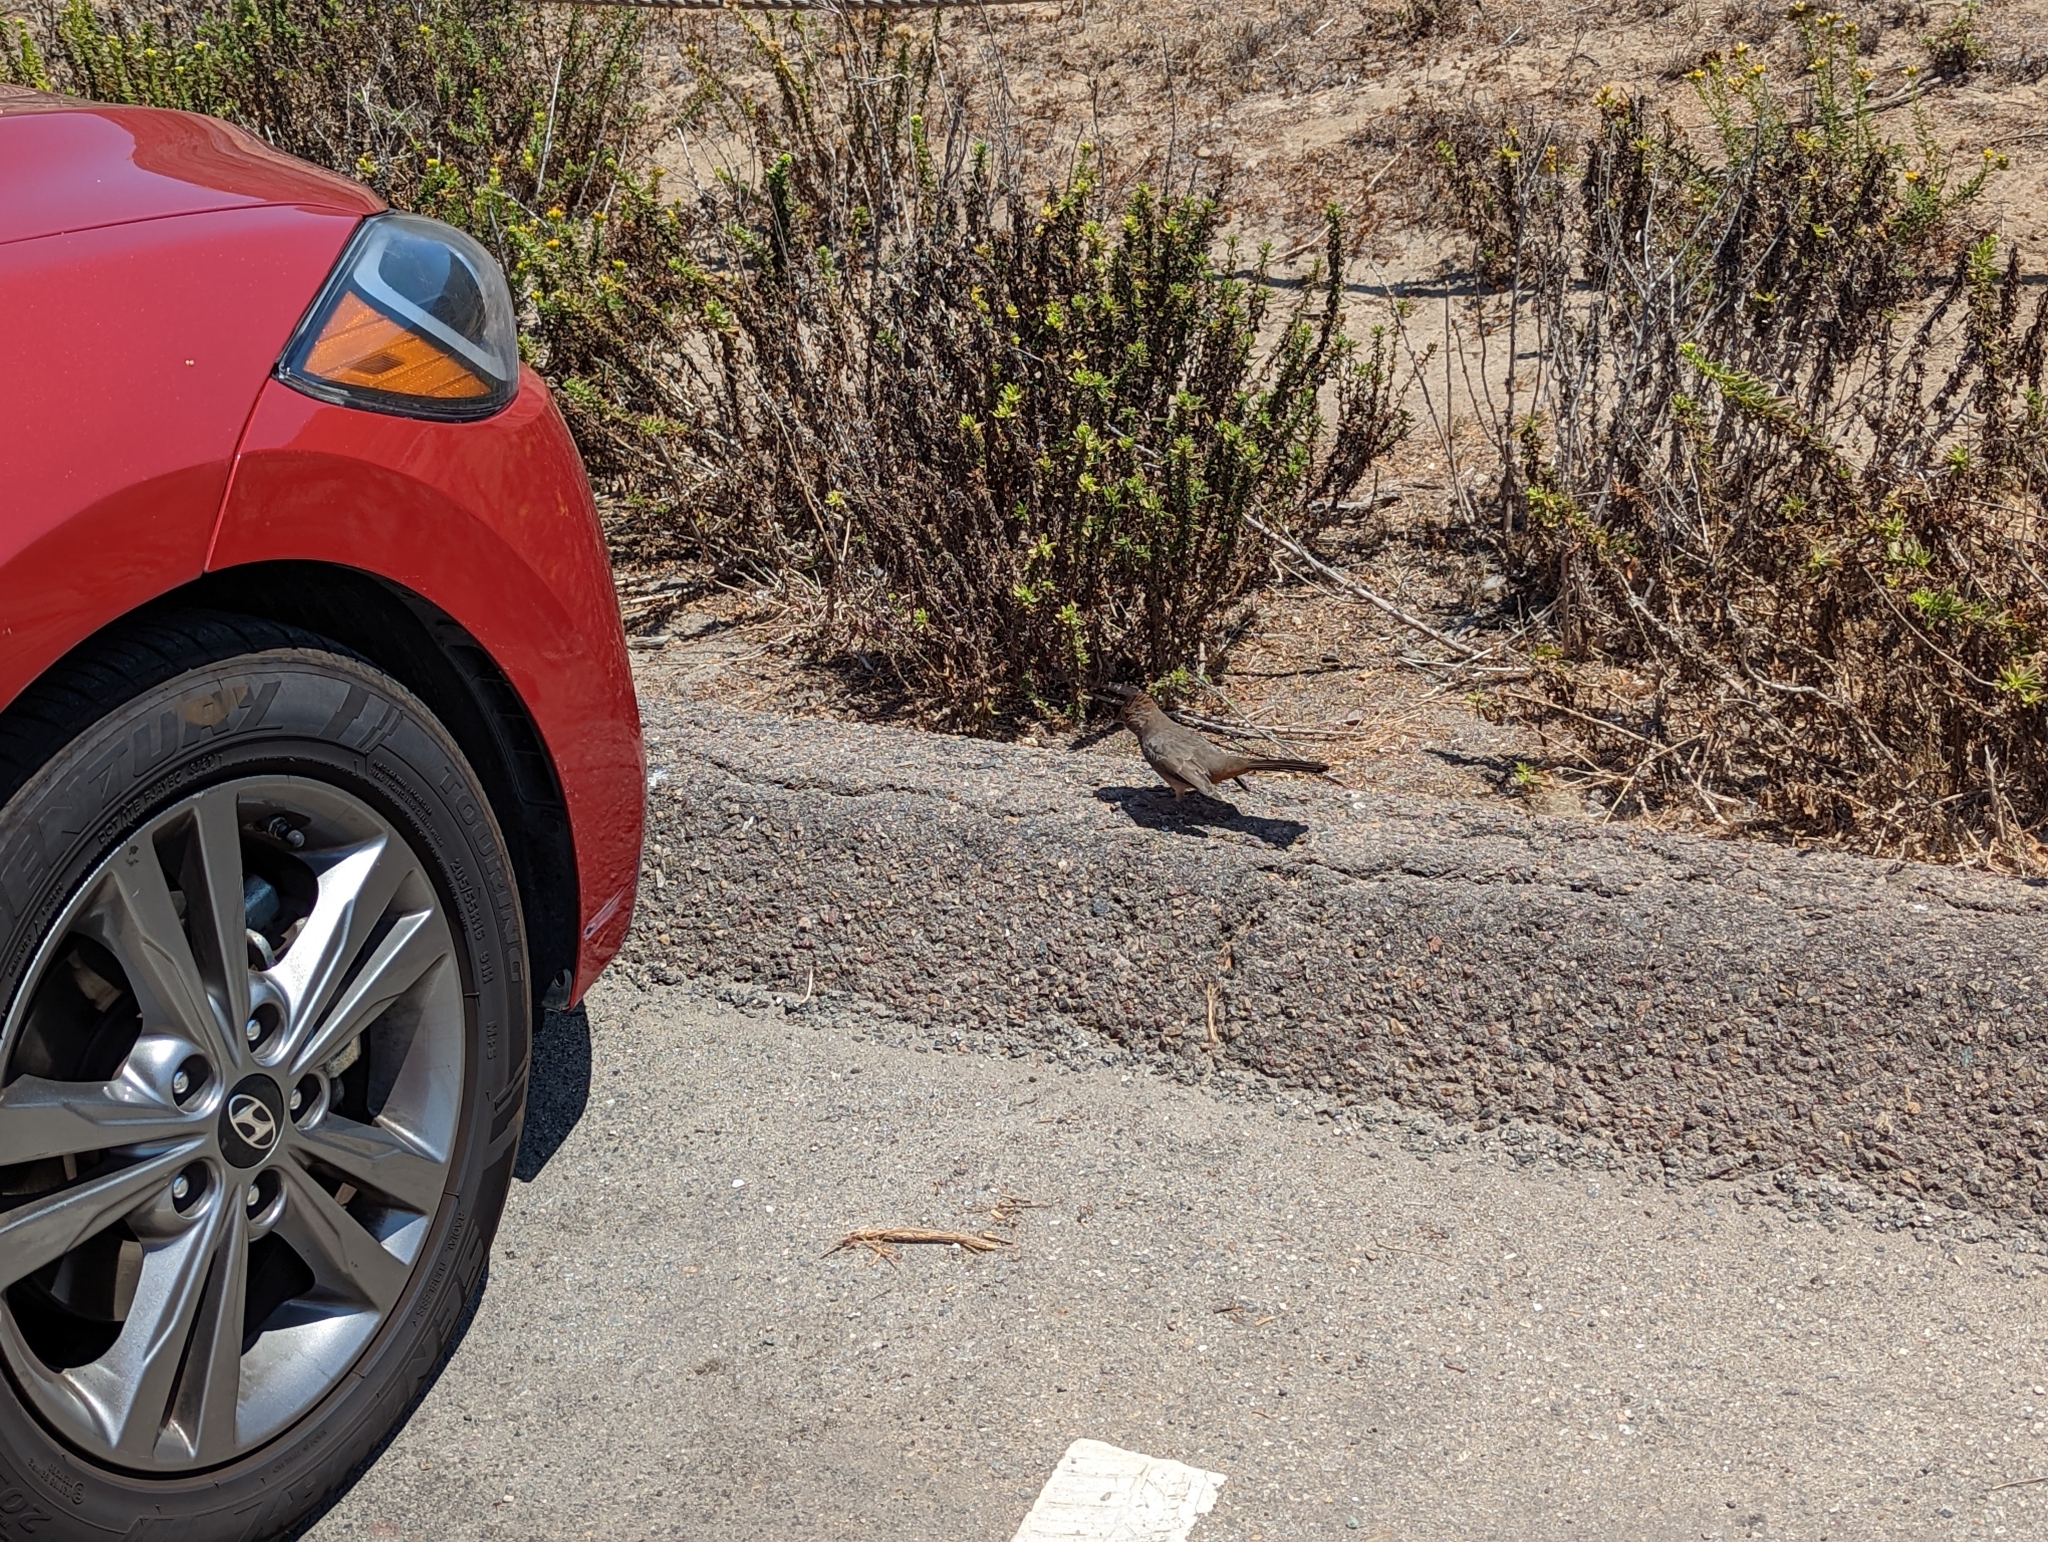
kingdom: Animalia
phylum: Chordata
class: Aves
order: Passeriformes
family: Passerellidae
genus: Melozone
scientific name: Melozone crissalis
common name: California towhee
